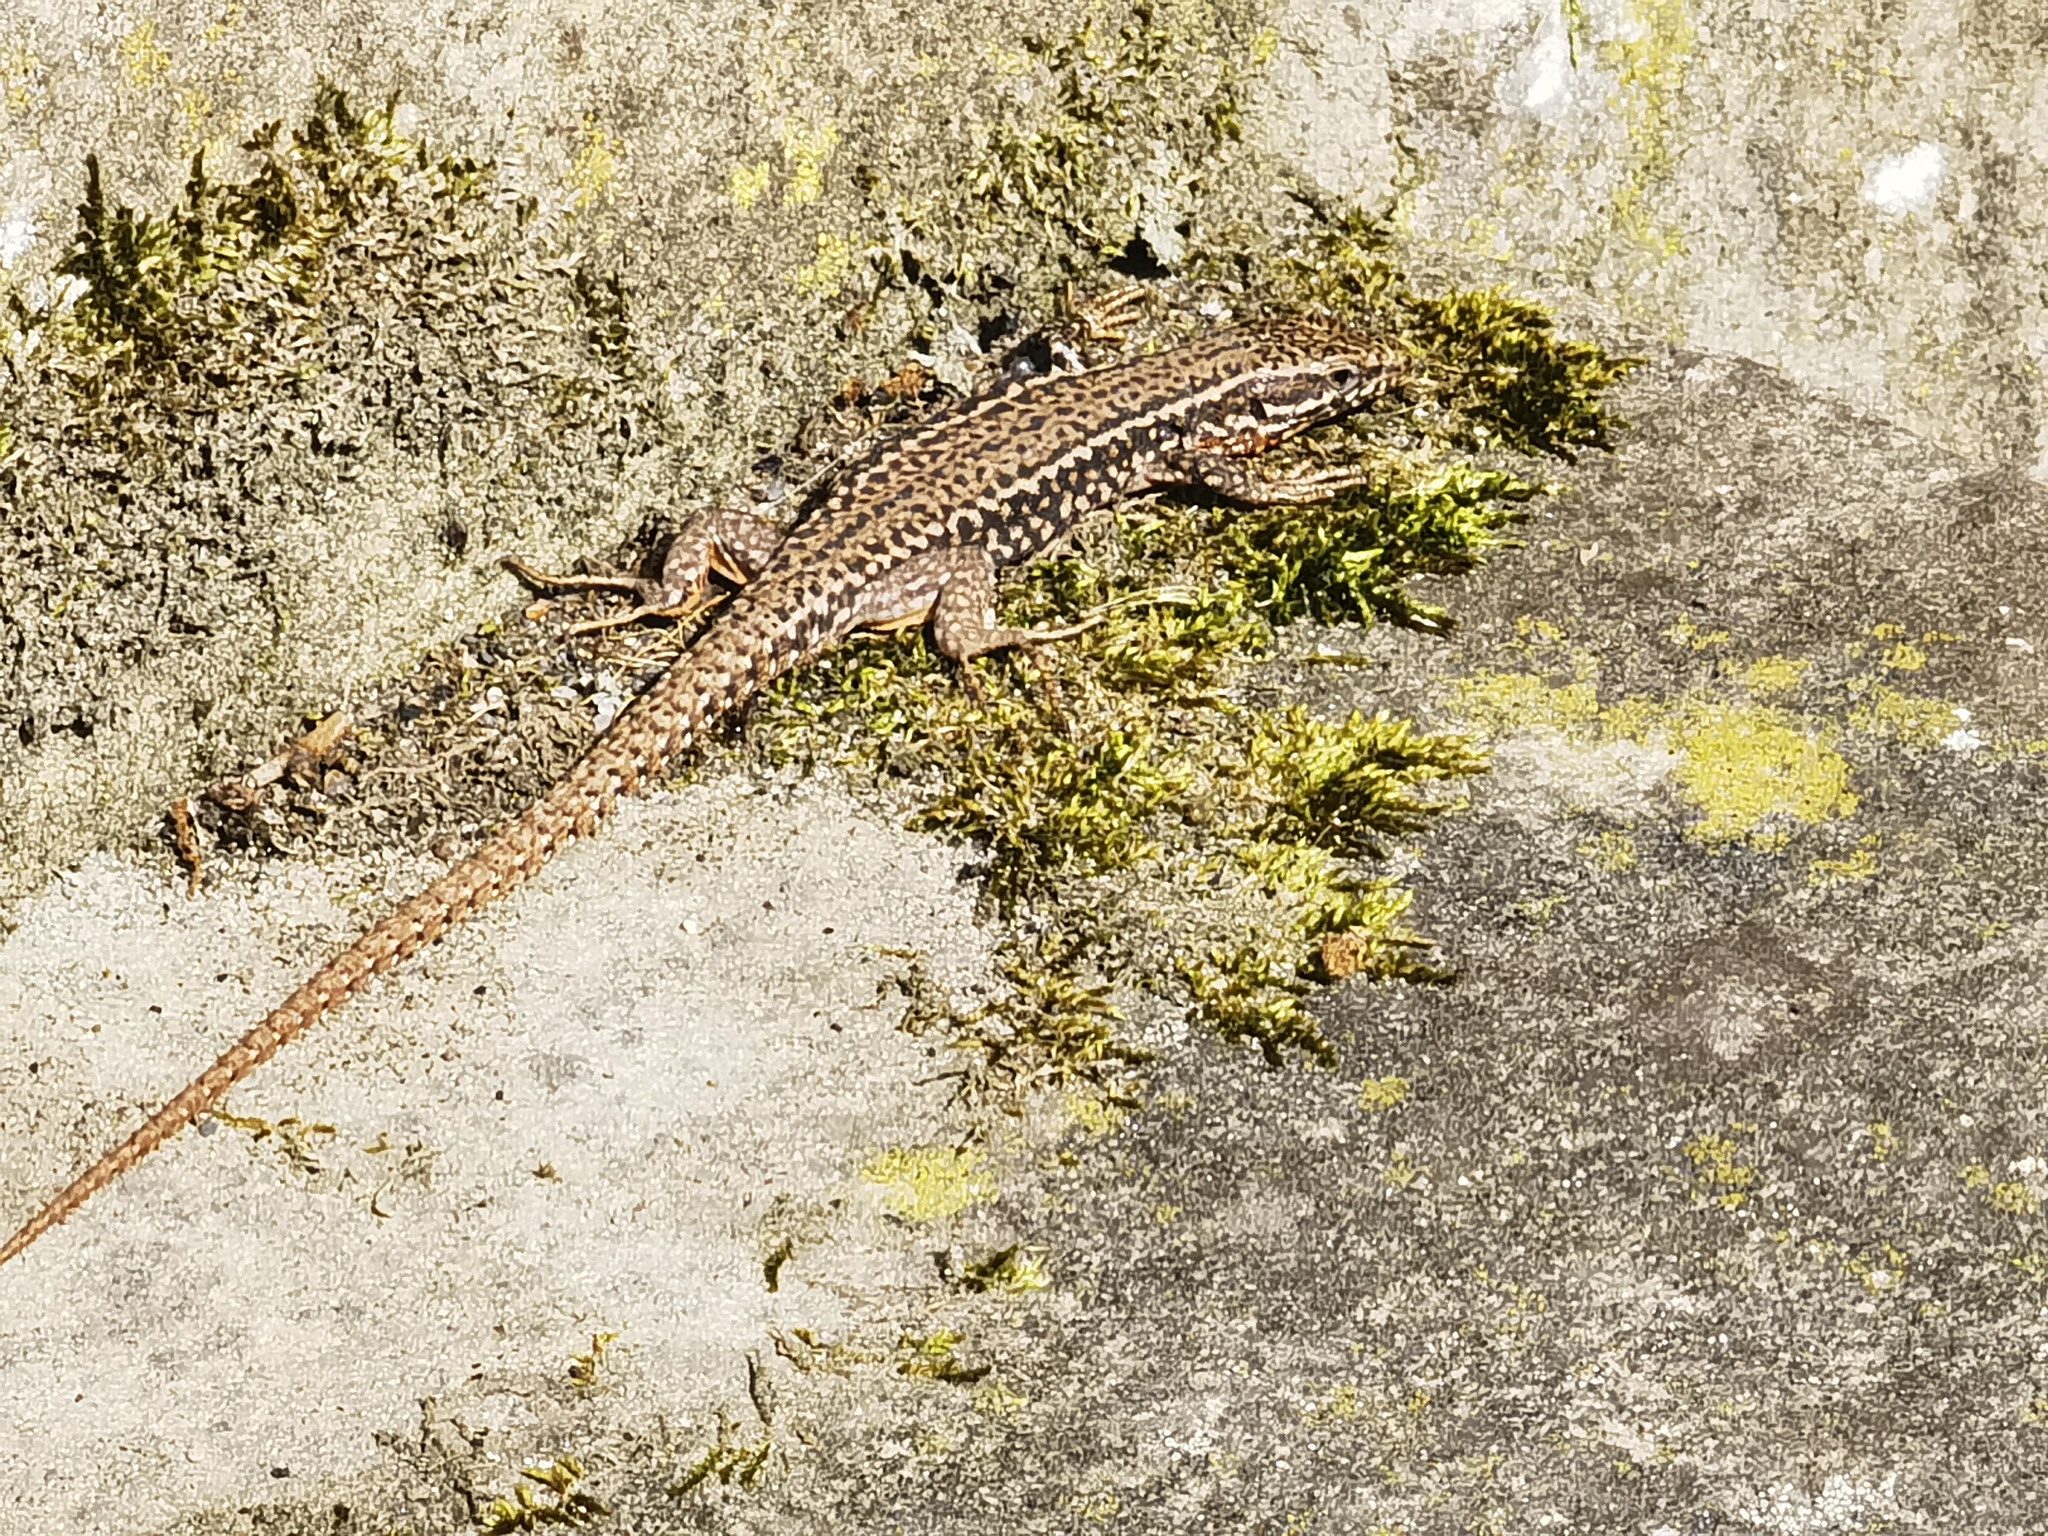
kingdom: Animalia
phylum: Chordata
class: Squamata
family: Lacertidae
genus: Podarcis
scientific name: Podarcis muralis
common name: Common wall lizard
